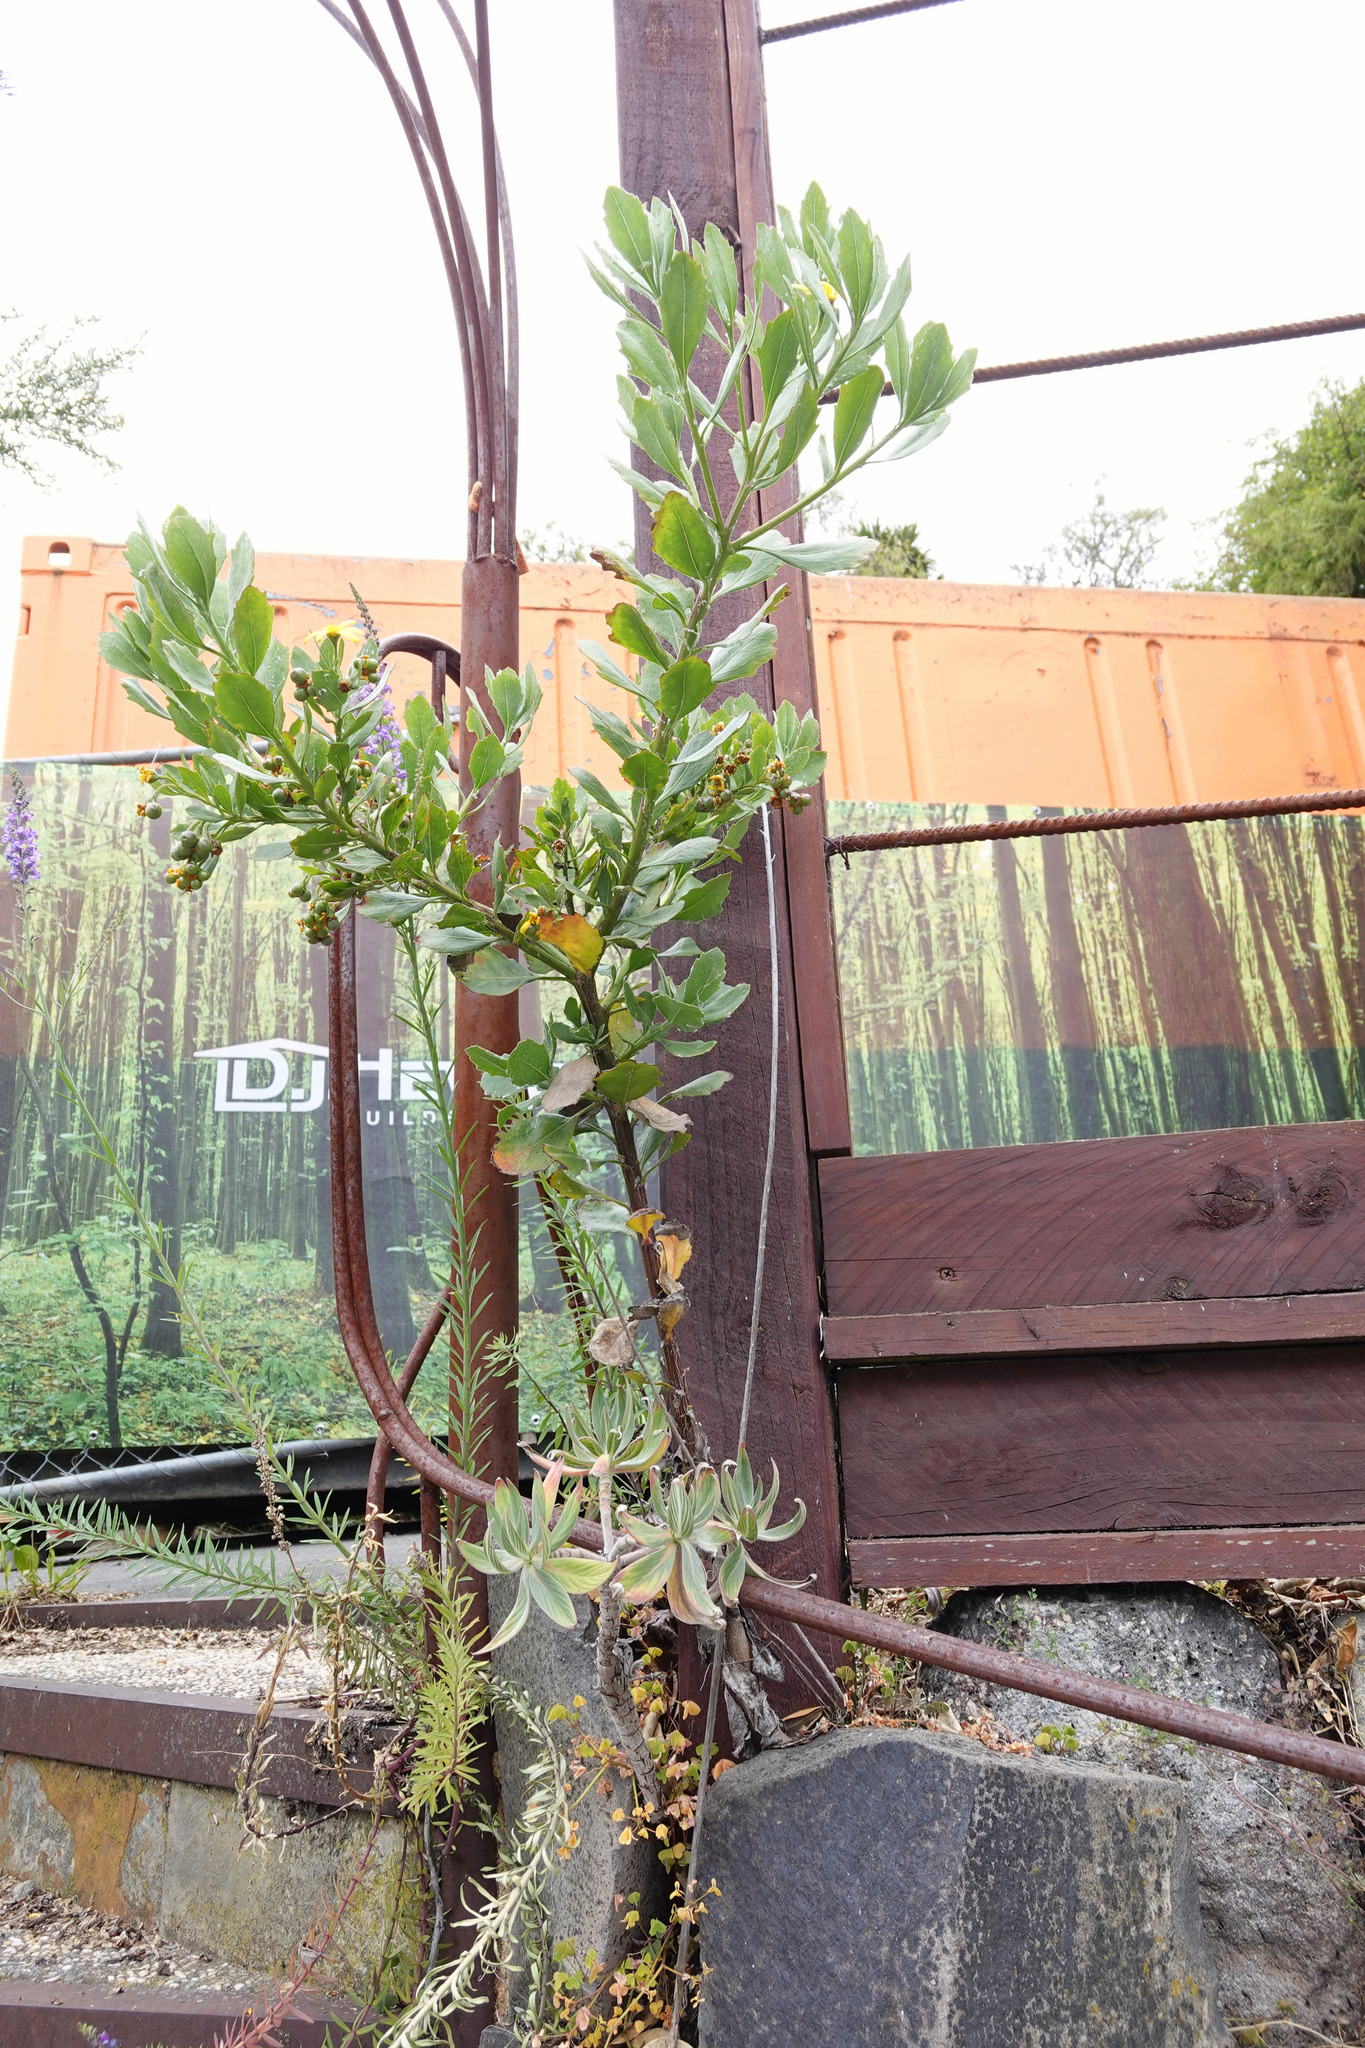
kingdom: Plantae
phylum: Tracheophyta
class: Magnoliopsida
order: Asterales
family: Asteraceae
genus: Osteospermum
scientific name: Osteospermum moniliferum
